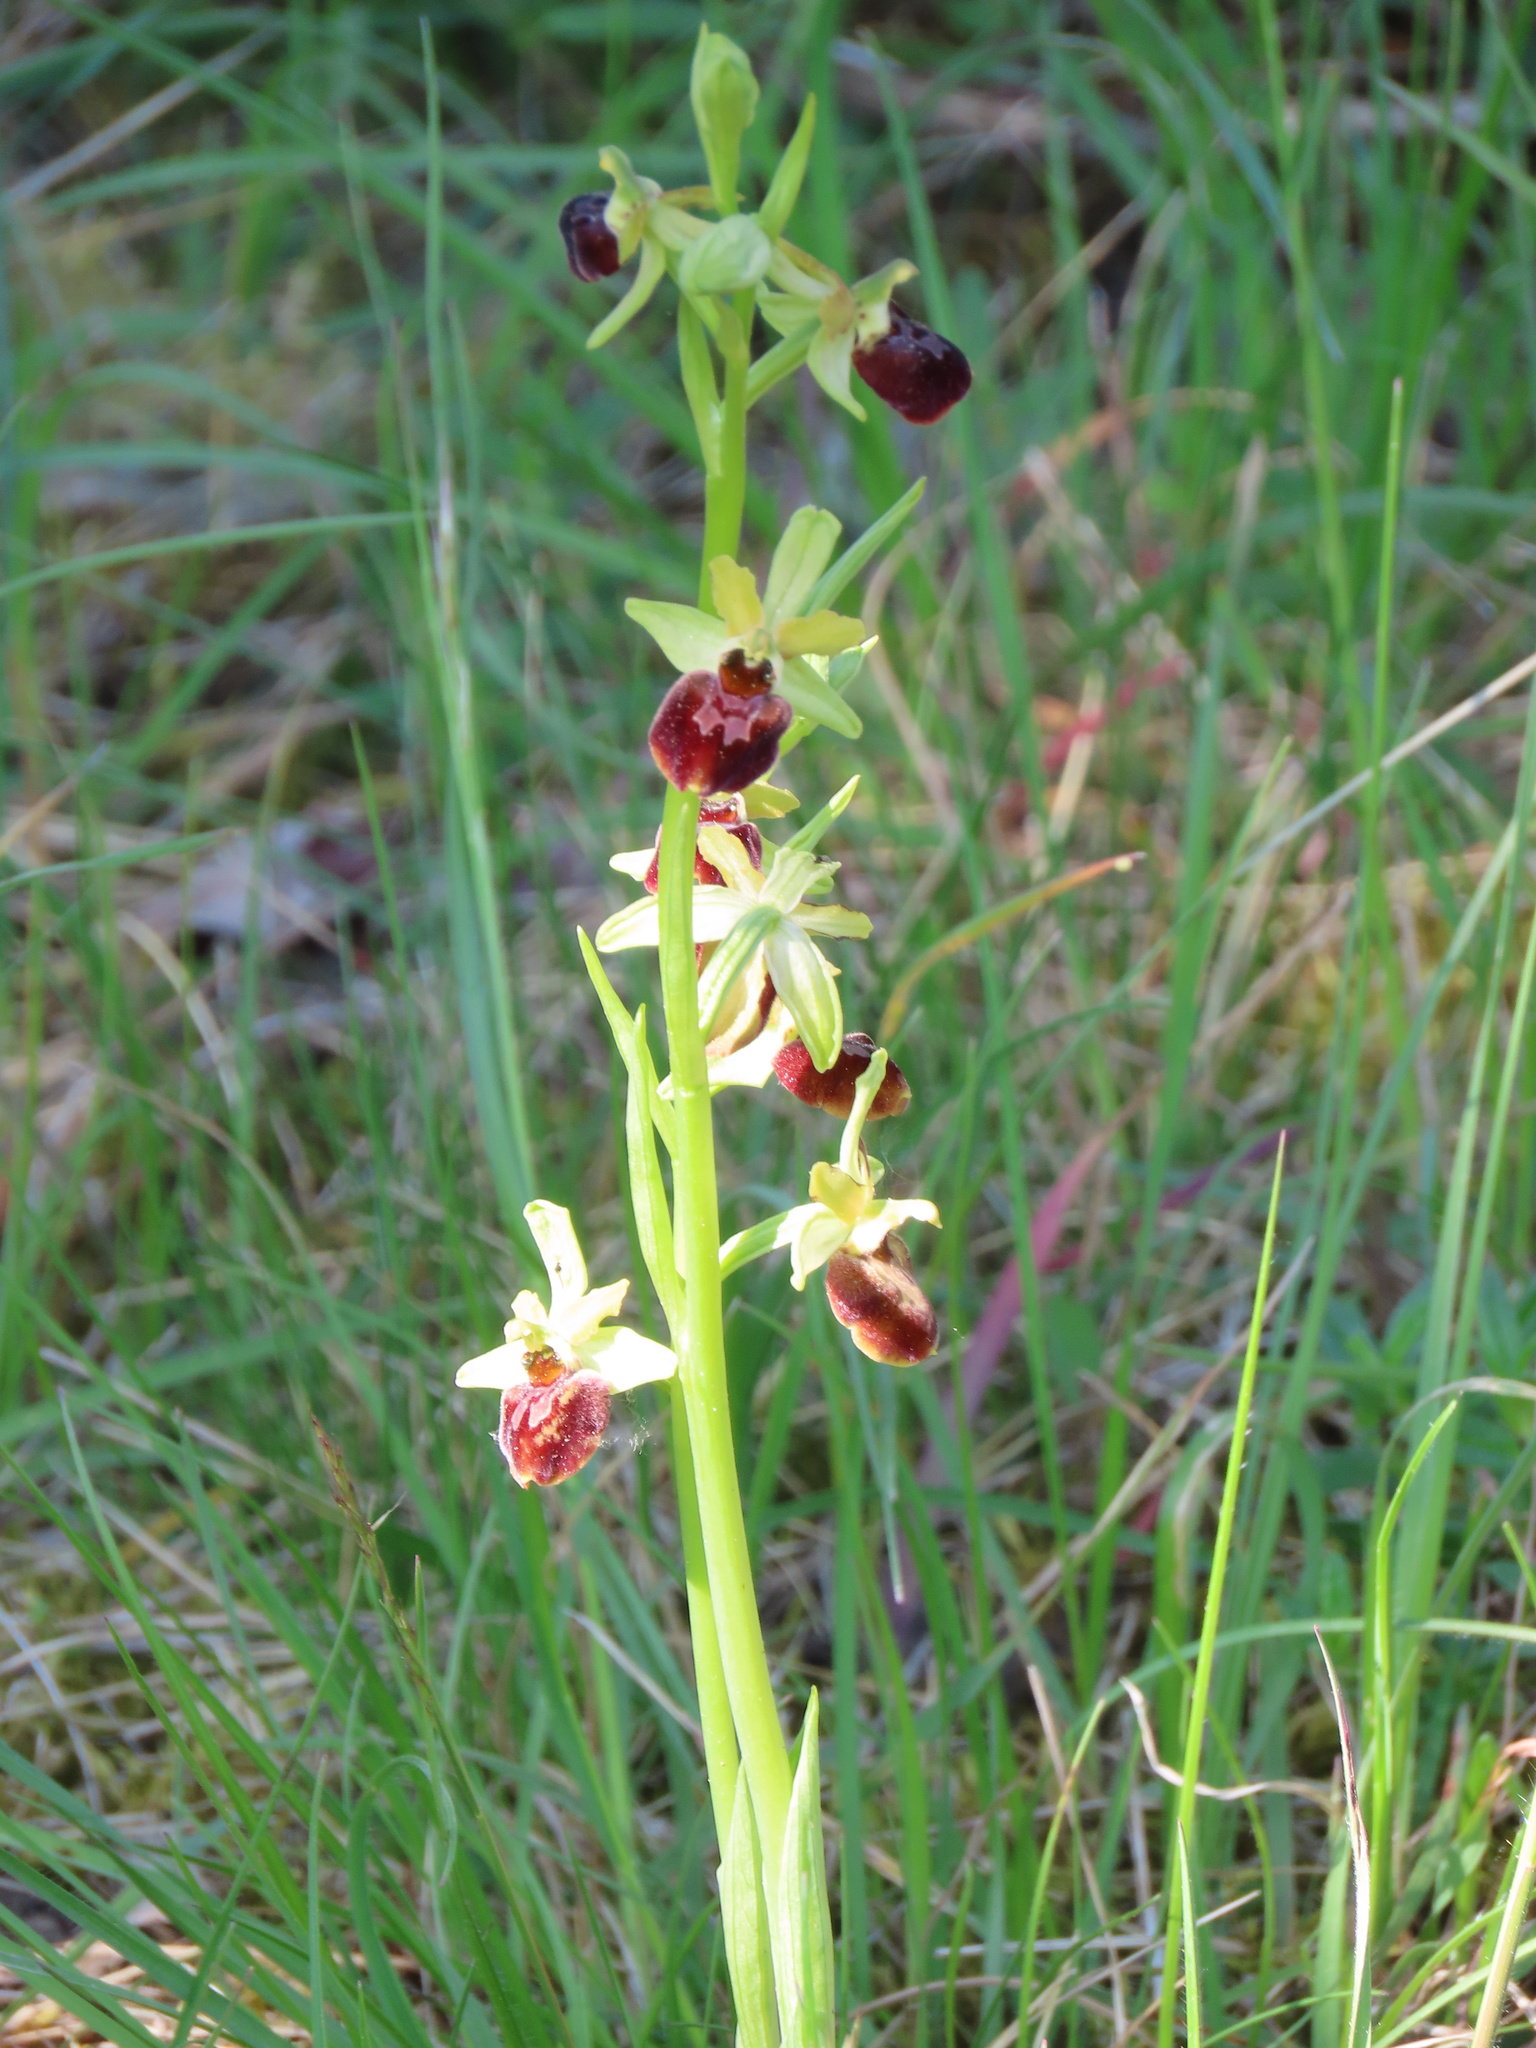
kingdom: Plantae
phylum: Tracheophyta
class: Liliopsida
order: Asparagales
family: Orchidaceae
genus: Ophrys
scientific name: Ophrys sphegodes
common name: Early spider-orchid
